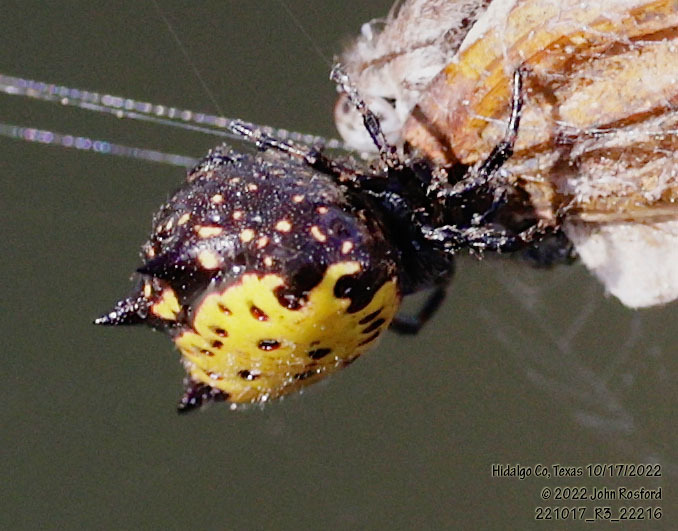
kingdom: Animalia
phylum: Arthropoda
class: Arachnida
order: Araneae
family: Araneidae
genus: Gasteracantha
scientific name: Gasteracantha cancriformis
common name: Orb weavers
